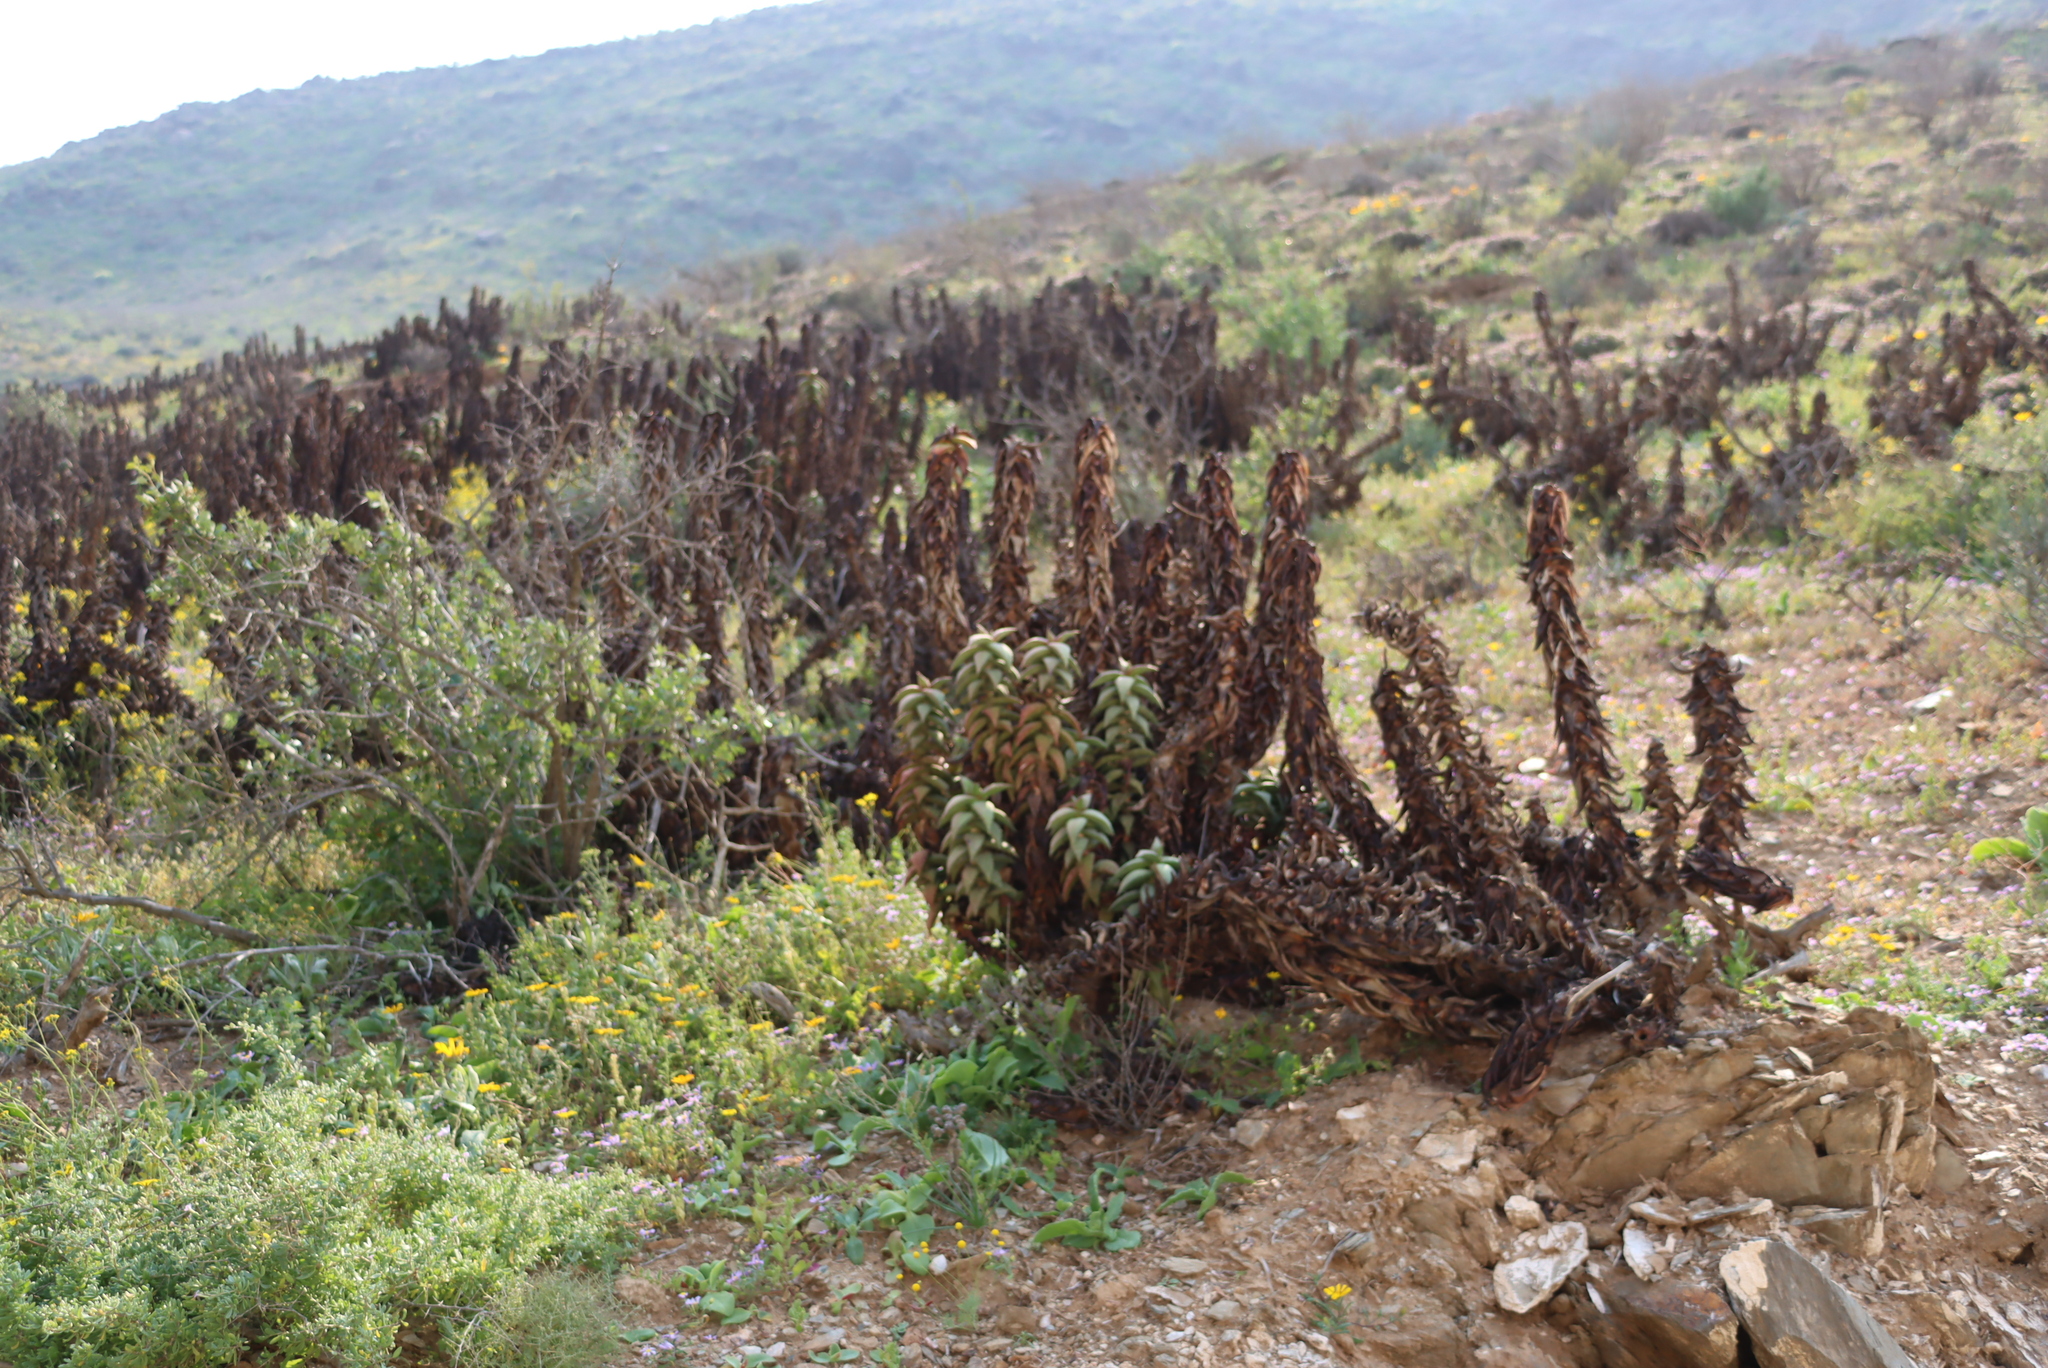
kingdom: Plantae
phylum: Tracheophyta
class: Liliopsida
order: Asparagales
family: Asphodelaceae
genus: Aloe
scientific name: Aloe pearsonii
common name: Pearson's aloe
